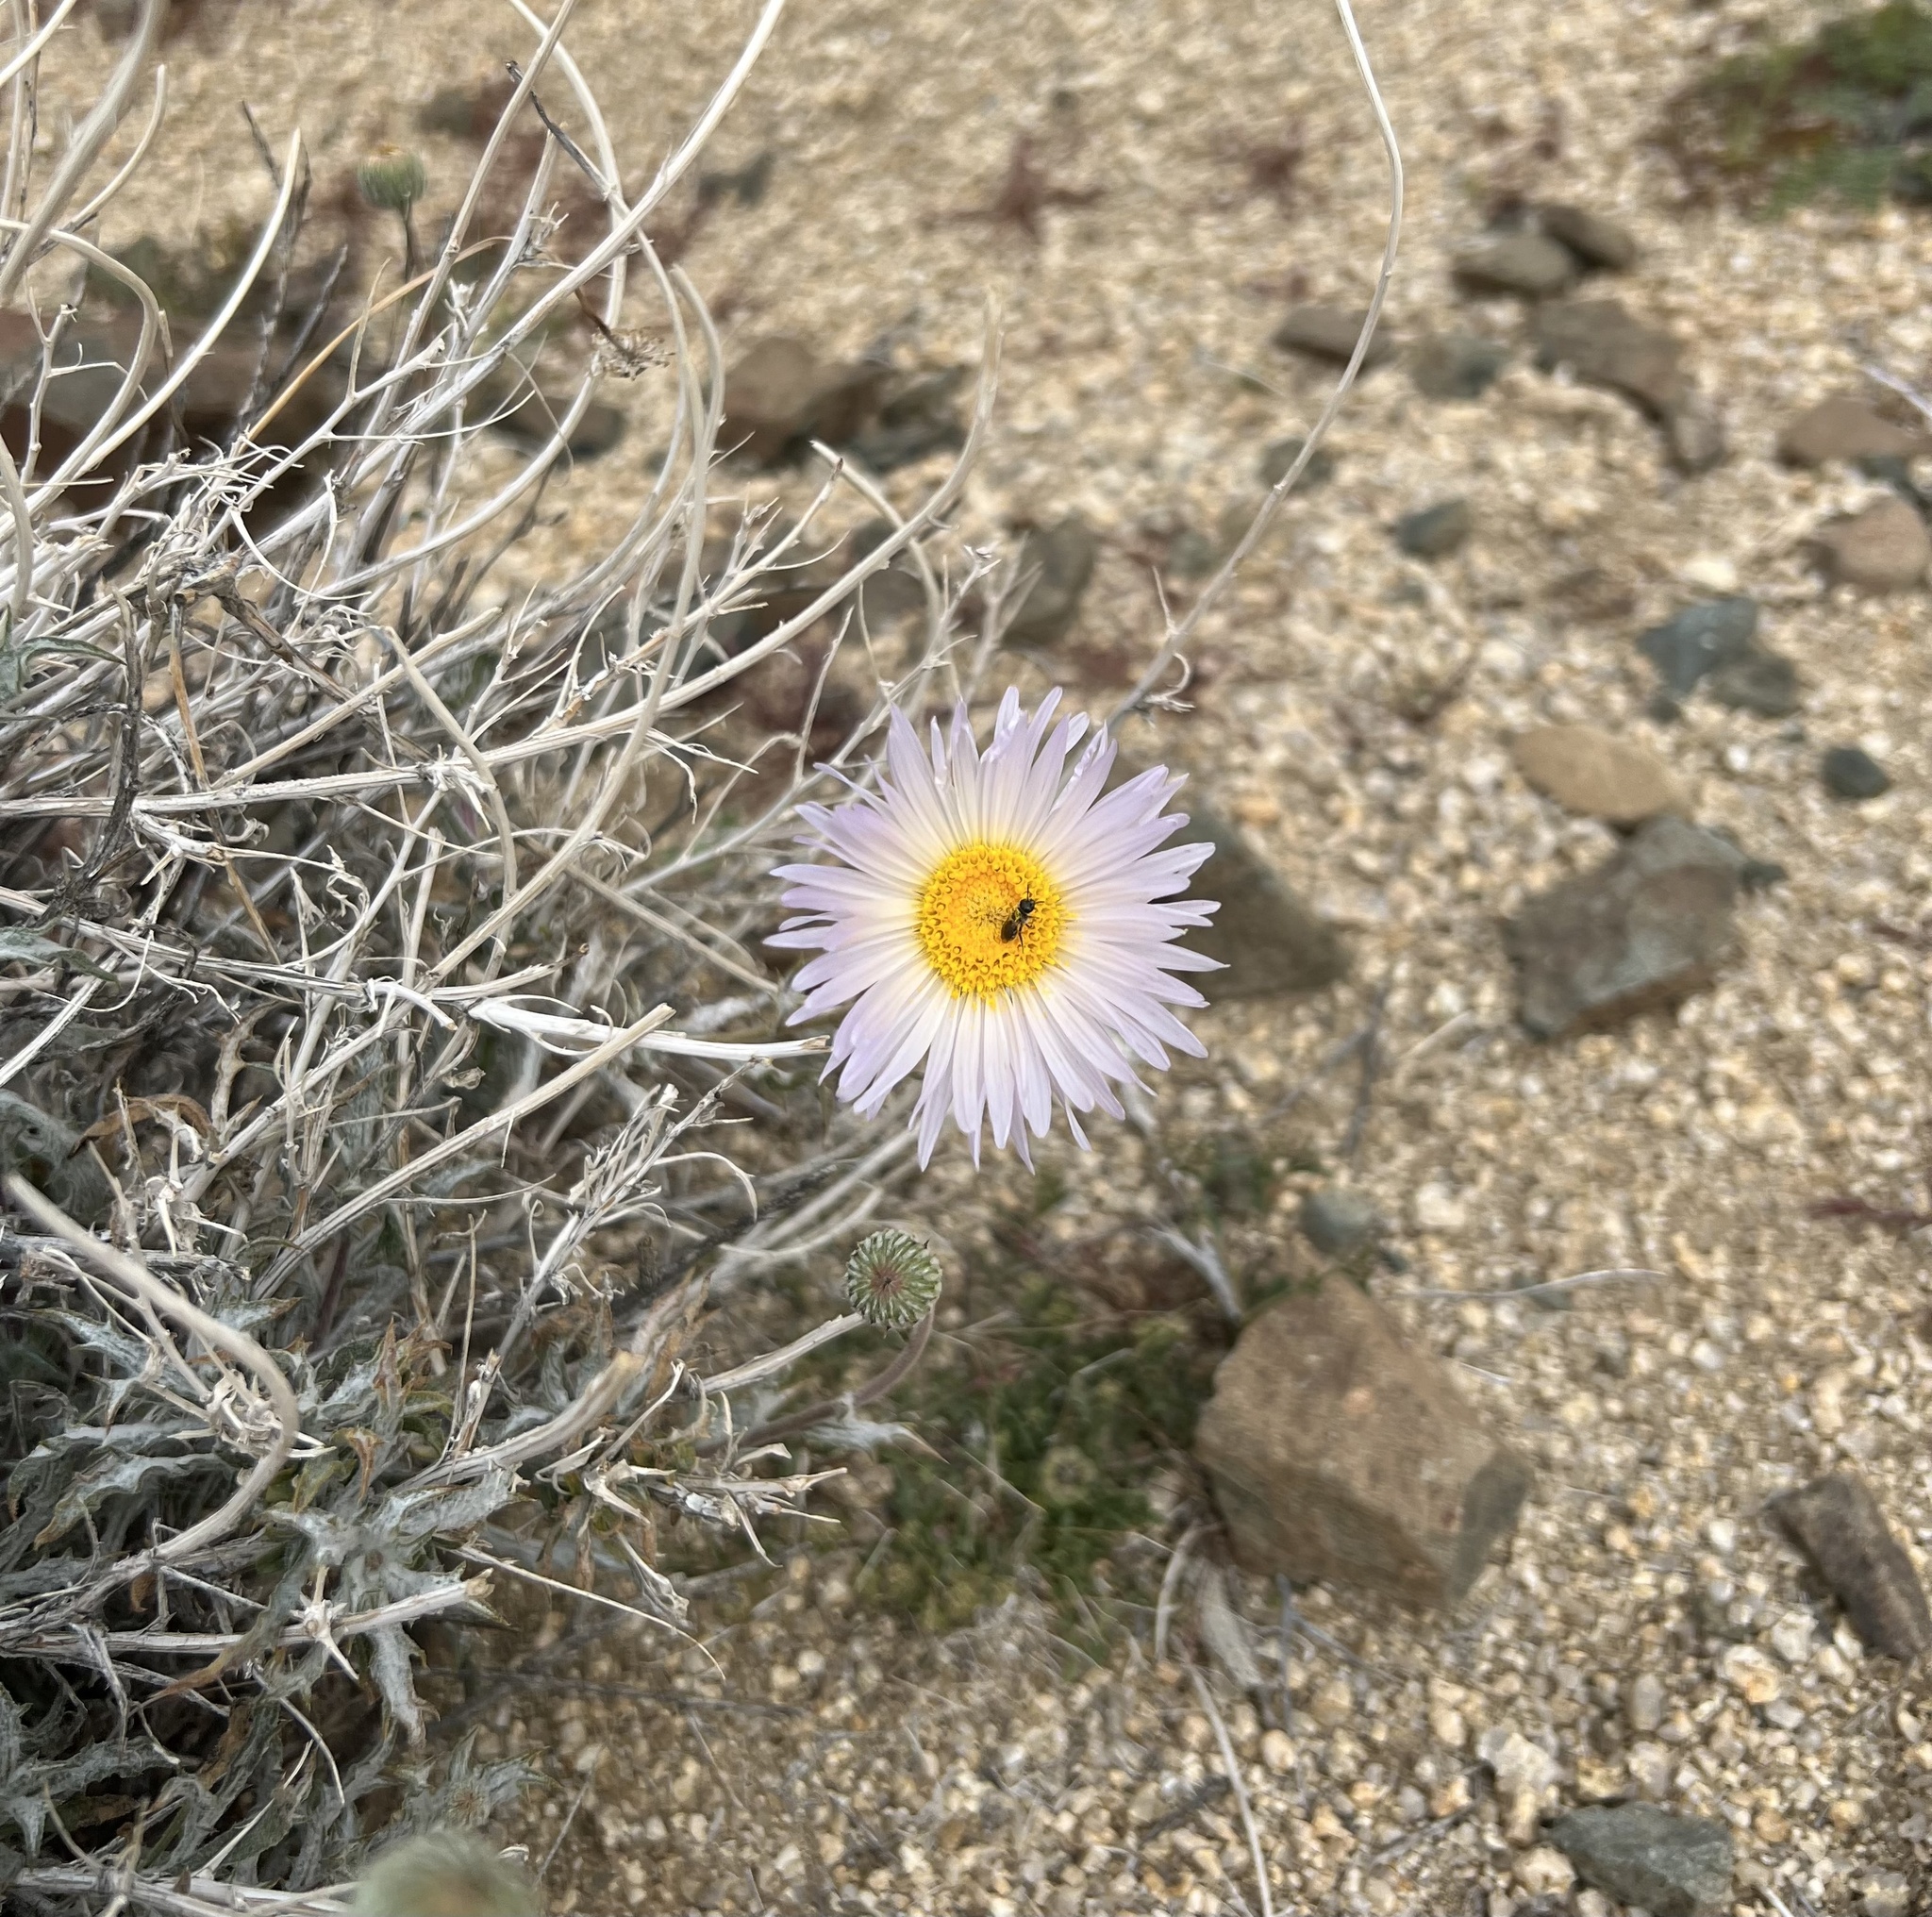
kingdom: Plantae
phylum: Tracheophyta
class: Magnoliopsida
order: Asterales
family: Asteraceae
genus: Xylorhiza
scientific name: Xylorhiza tortifolia
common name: Hurt-leaf woody-aster
